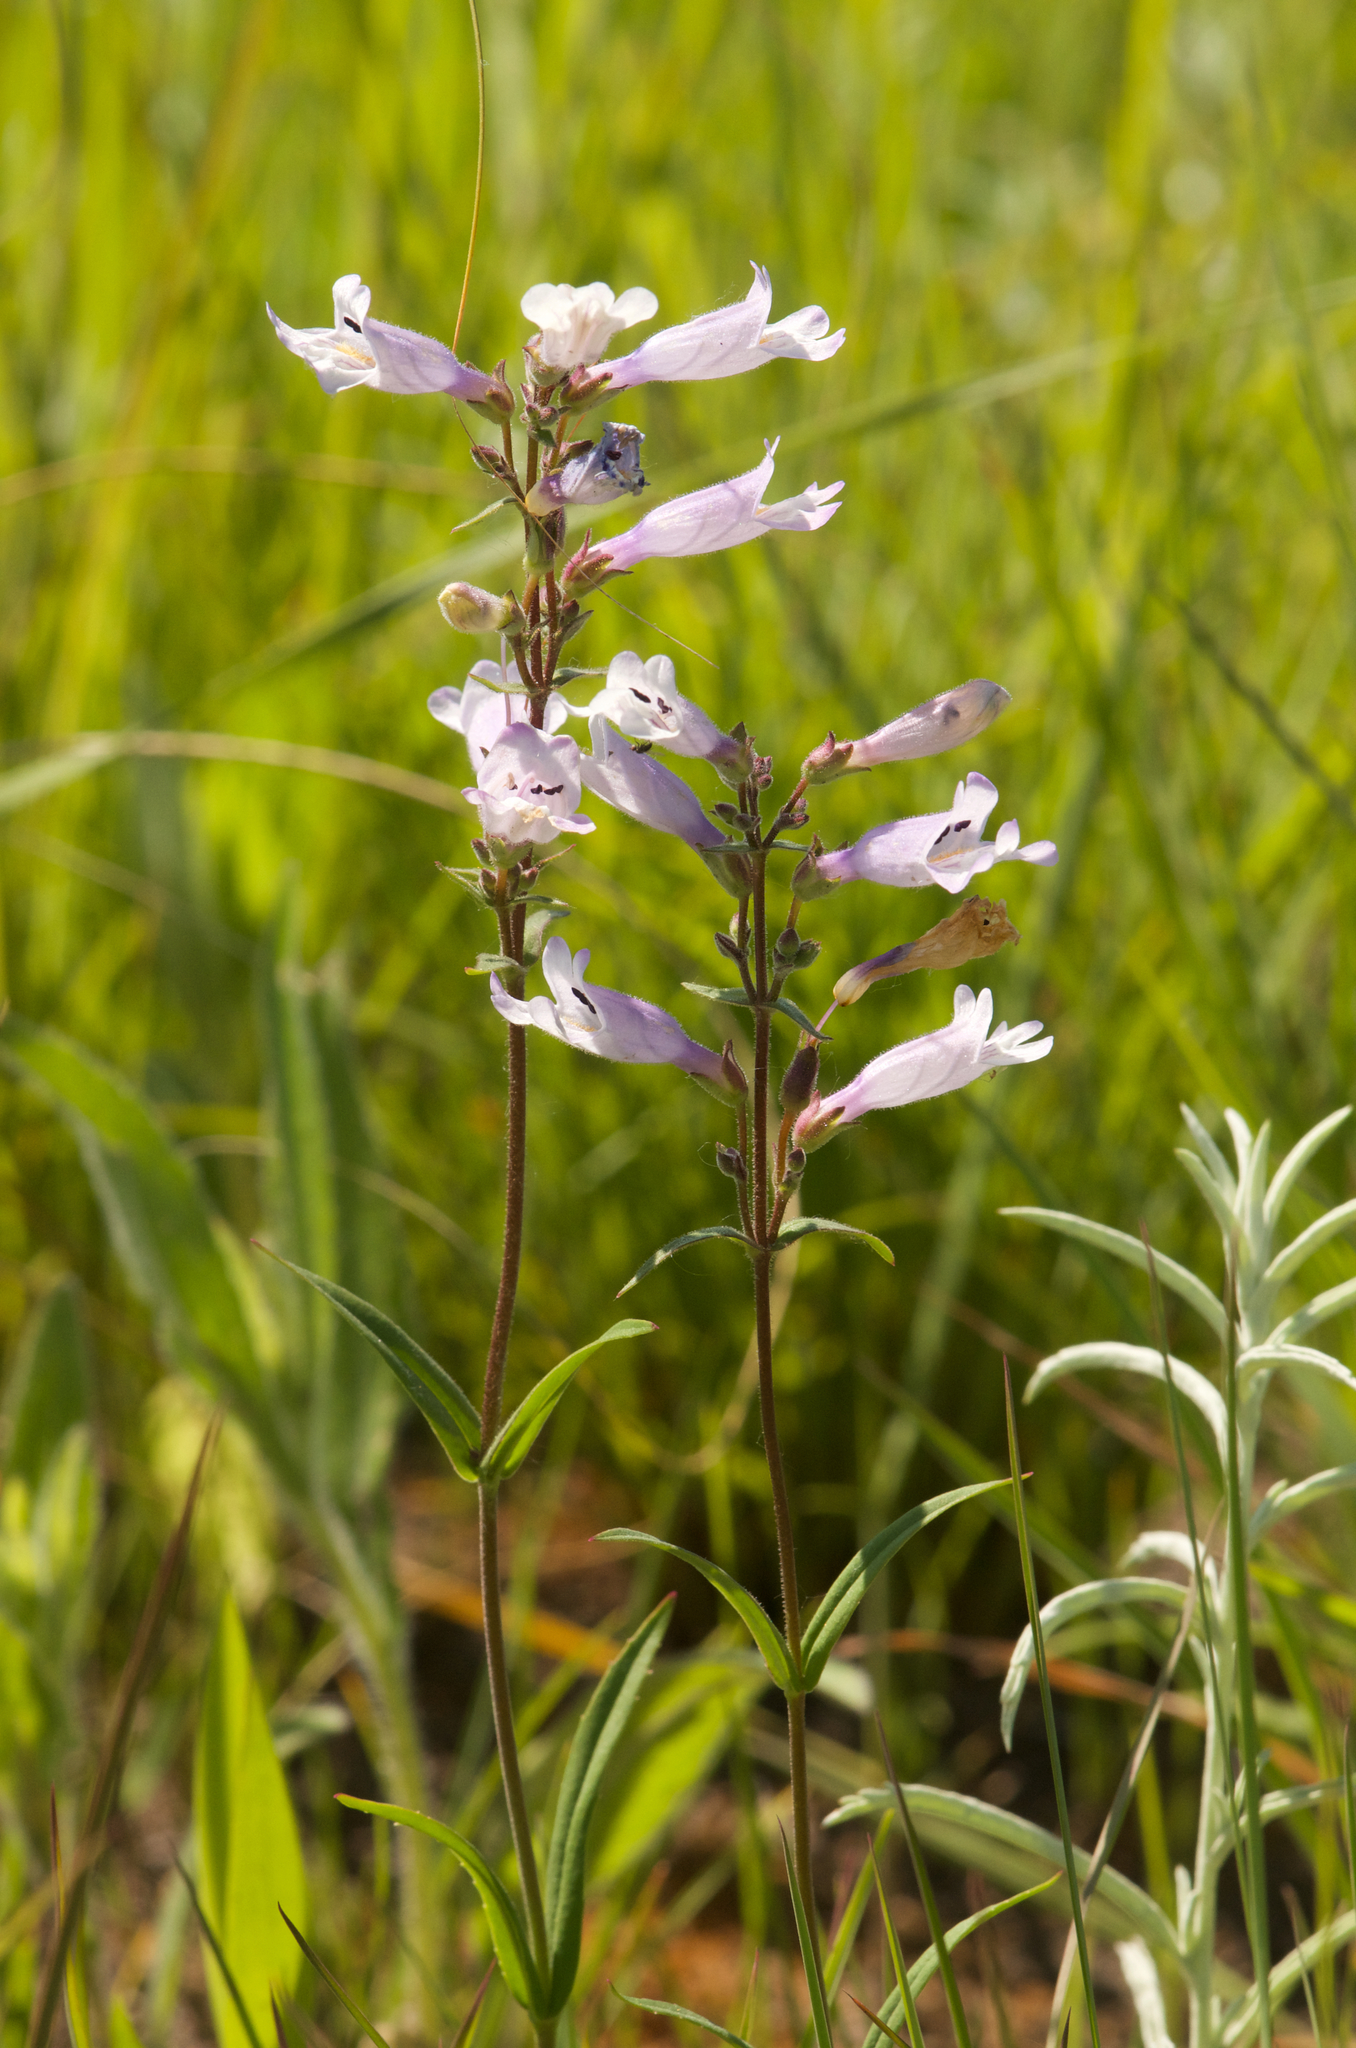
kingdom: Plantae
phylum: Tracheophyta
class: Magnoliopsida
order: Lamiales
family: Plantaginaceae
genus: Penstemon
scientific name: Penstemon
